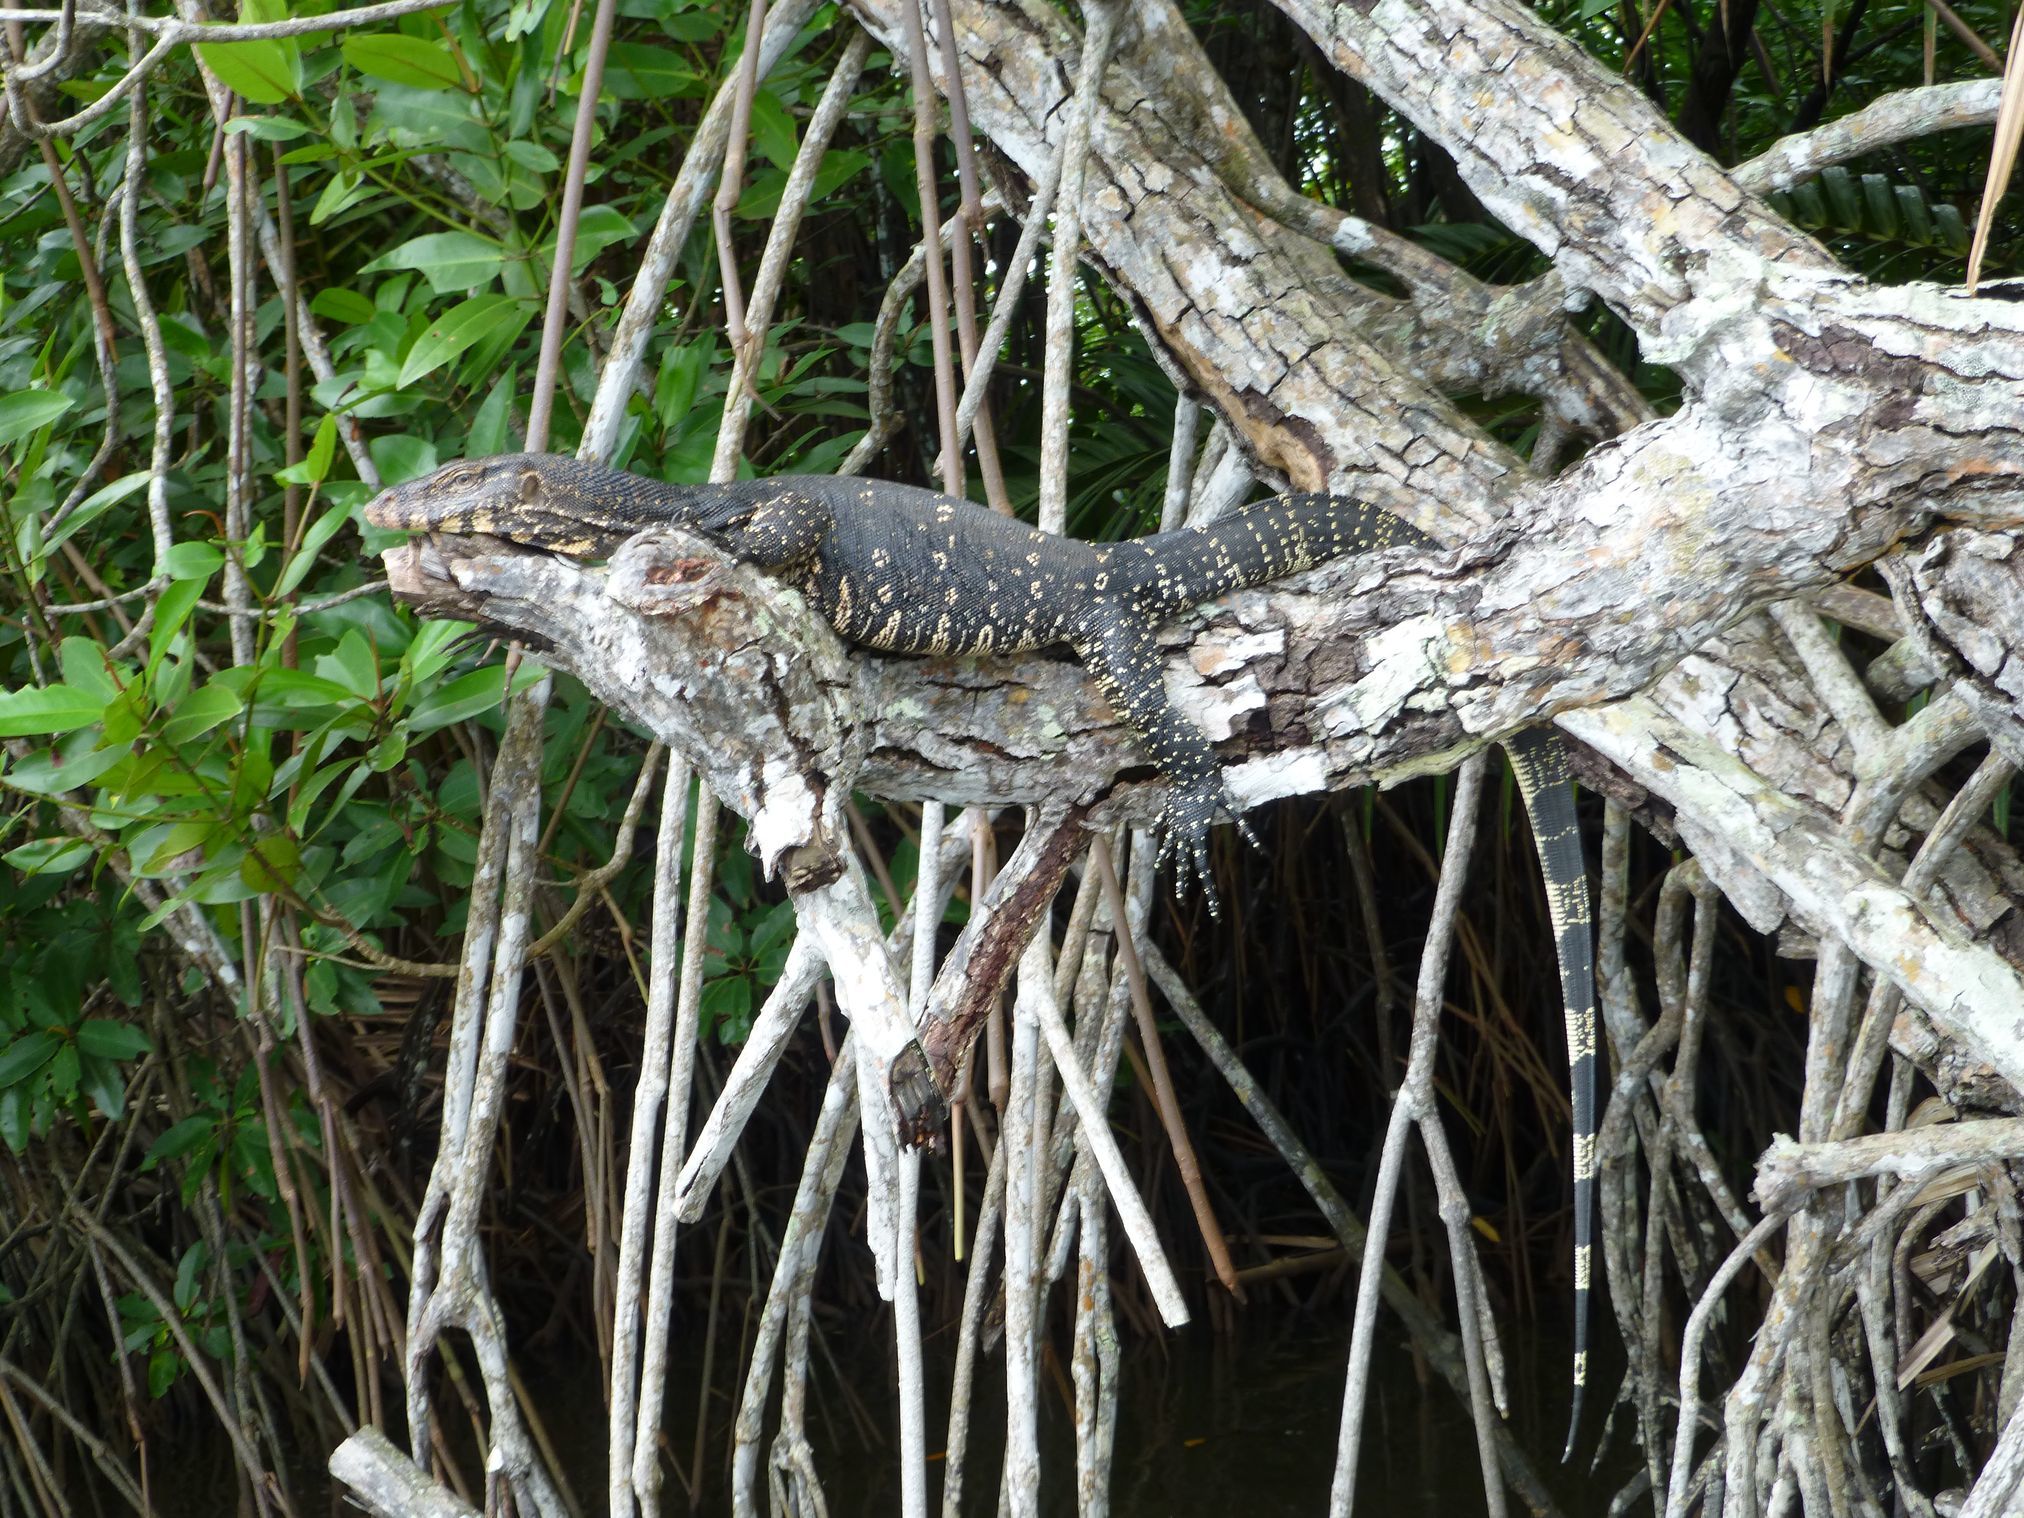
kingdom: Animalia
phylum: Chordata
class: Squamata
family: Varanidae
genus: Varanus
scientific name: Varanus salvator
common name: Common water monitor
